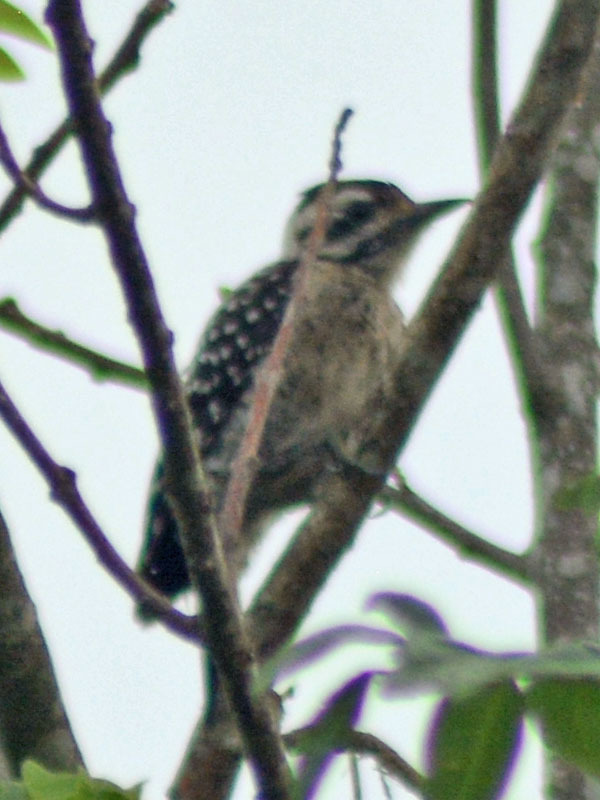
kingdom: Animalia
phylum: Chordata
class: Aves
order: Piciformes
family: Picidae
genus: Dryobates
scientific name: Dryobates scalaris
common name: Ladder-backed woodpecker
